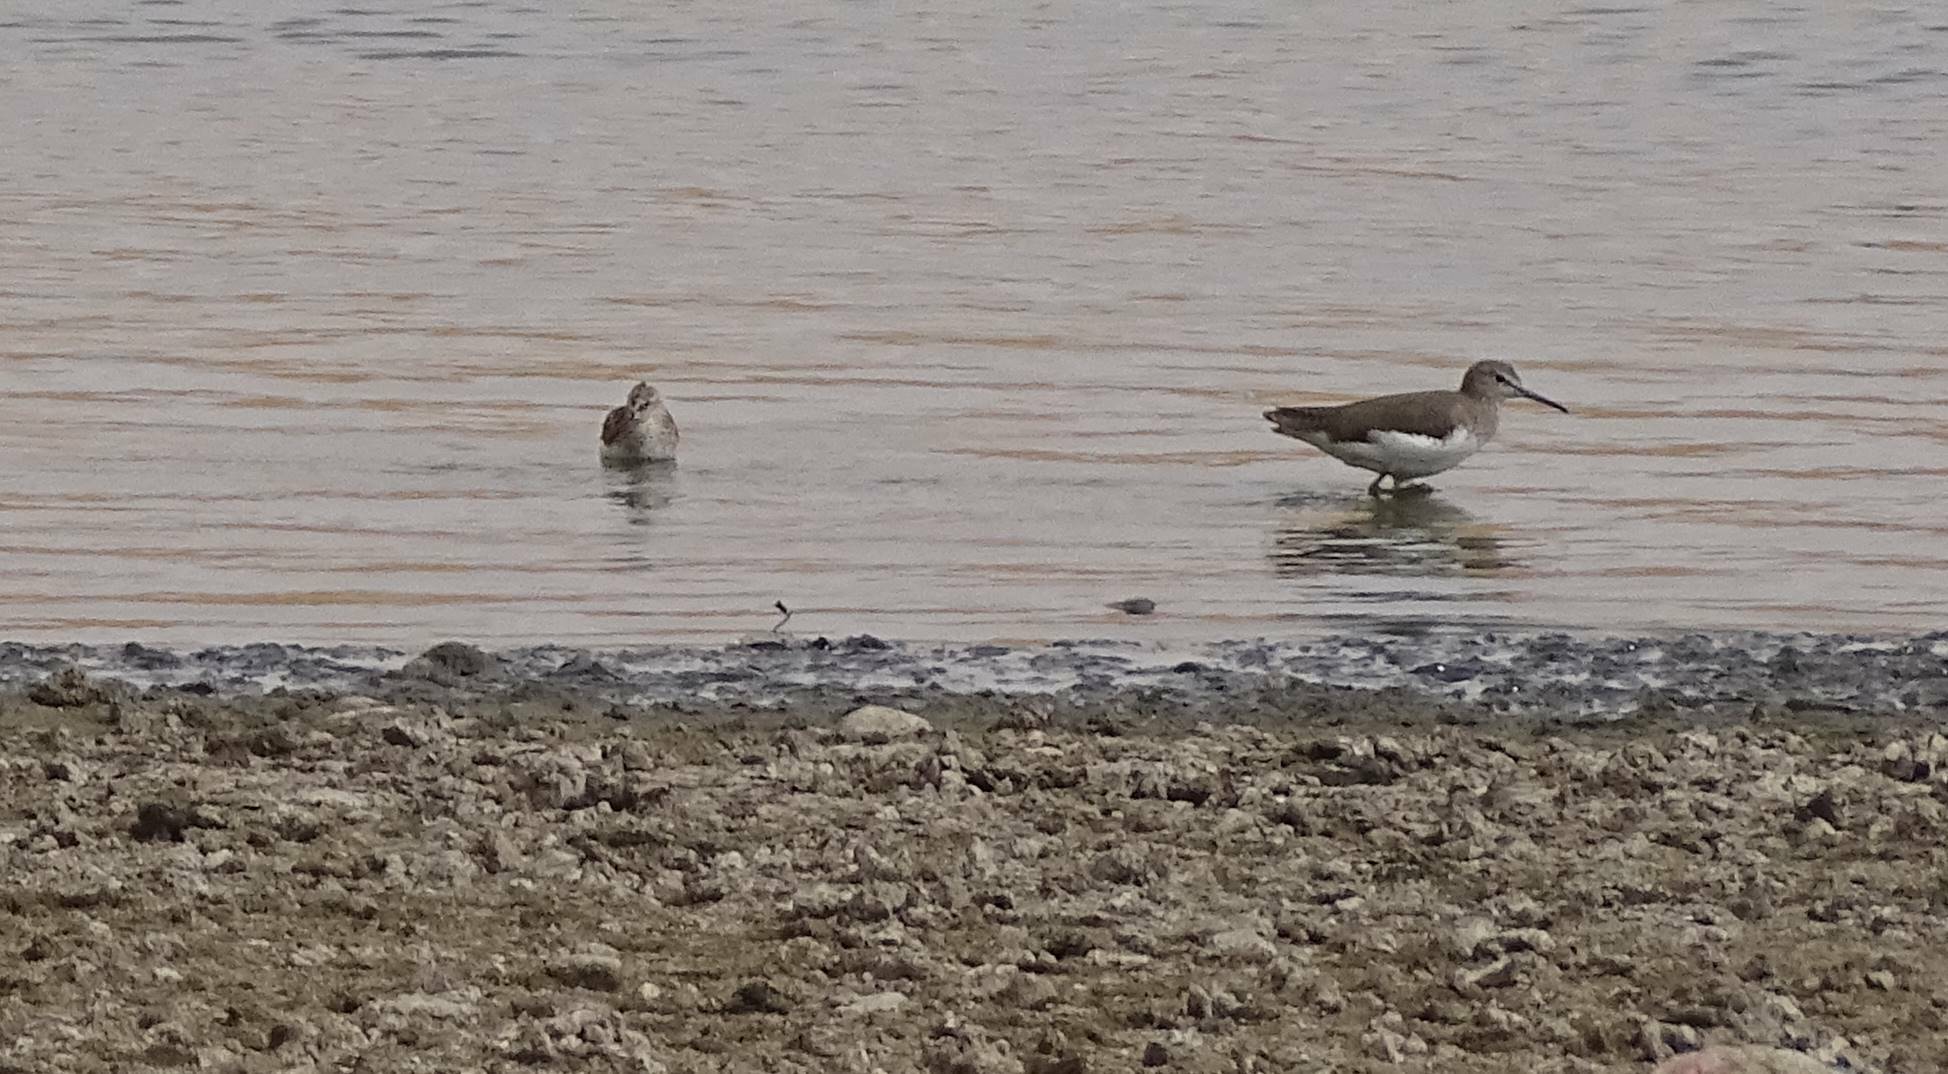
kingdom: Animalia
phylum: Chordata
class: Aves
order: Charadriiformes
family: Scolopacidae
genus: Tringa
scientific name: Tringa ochropus
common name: Green sandpiper
